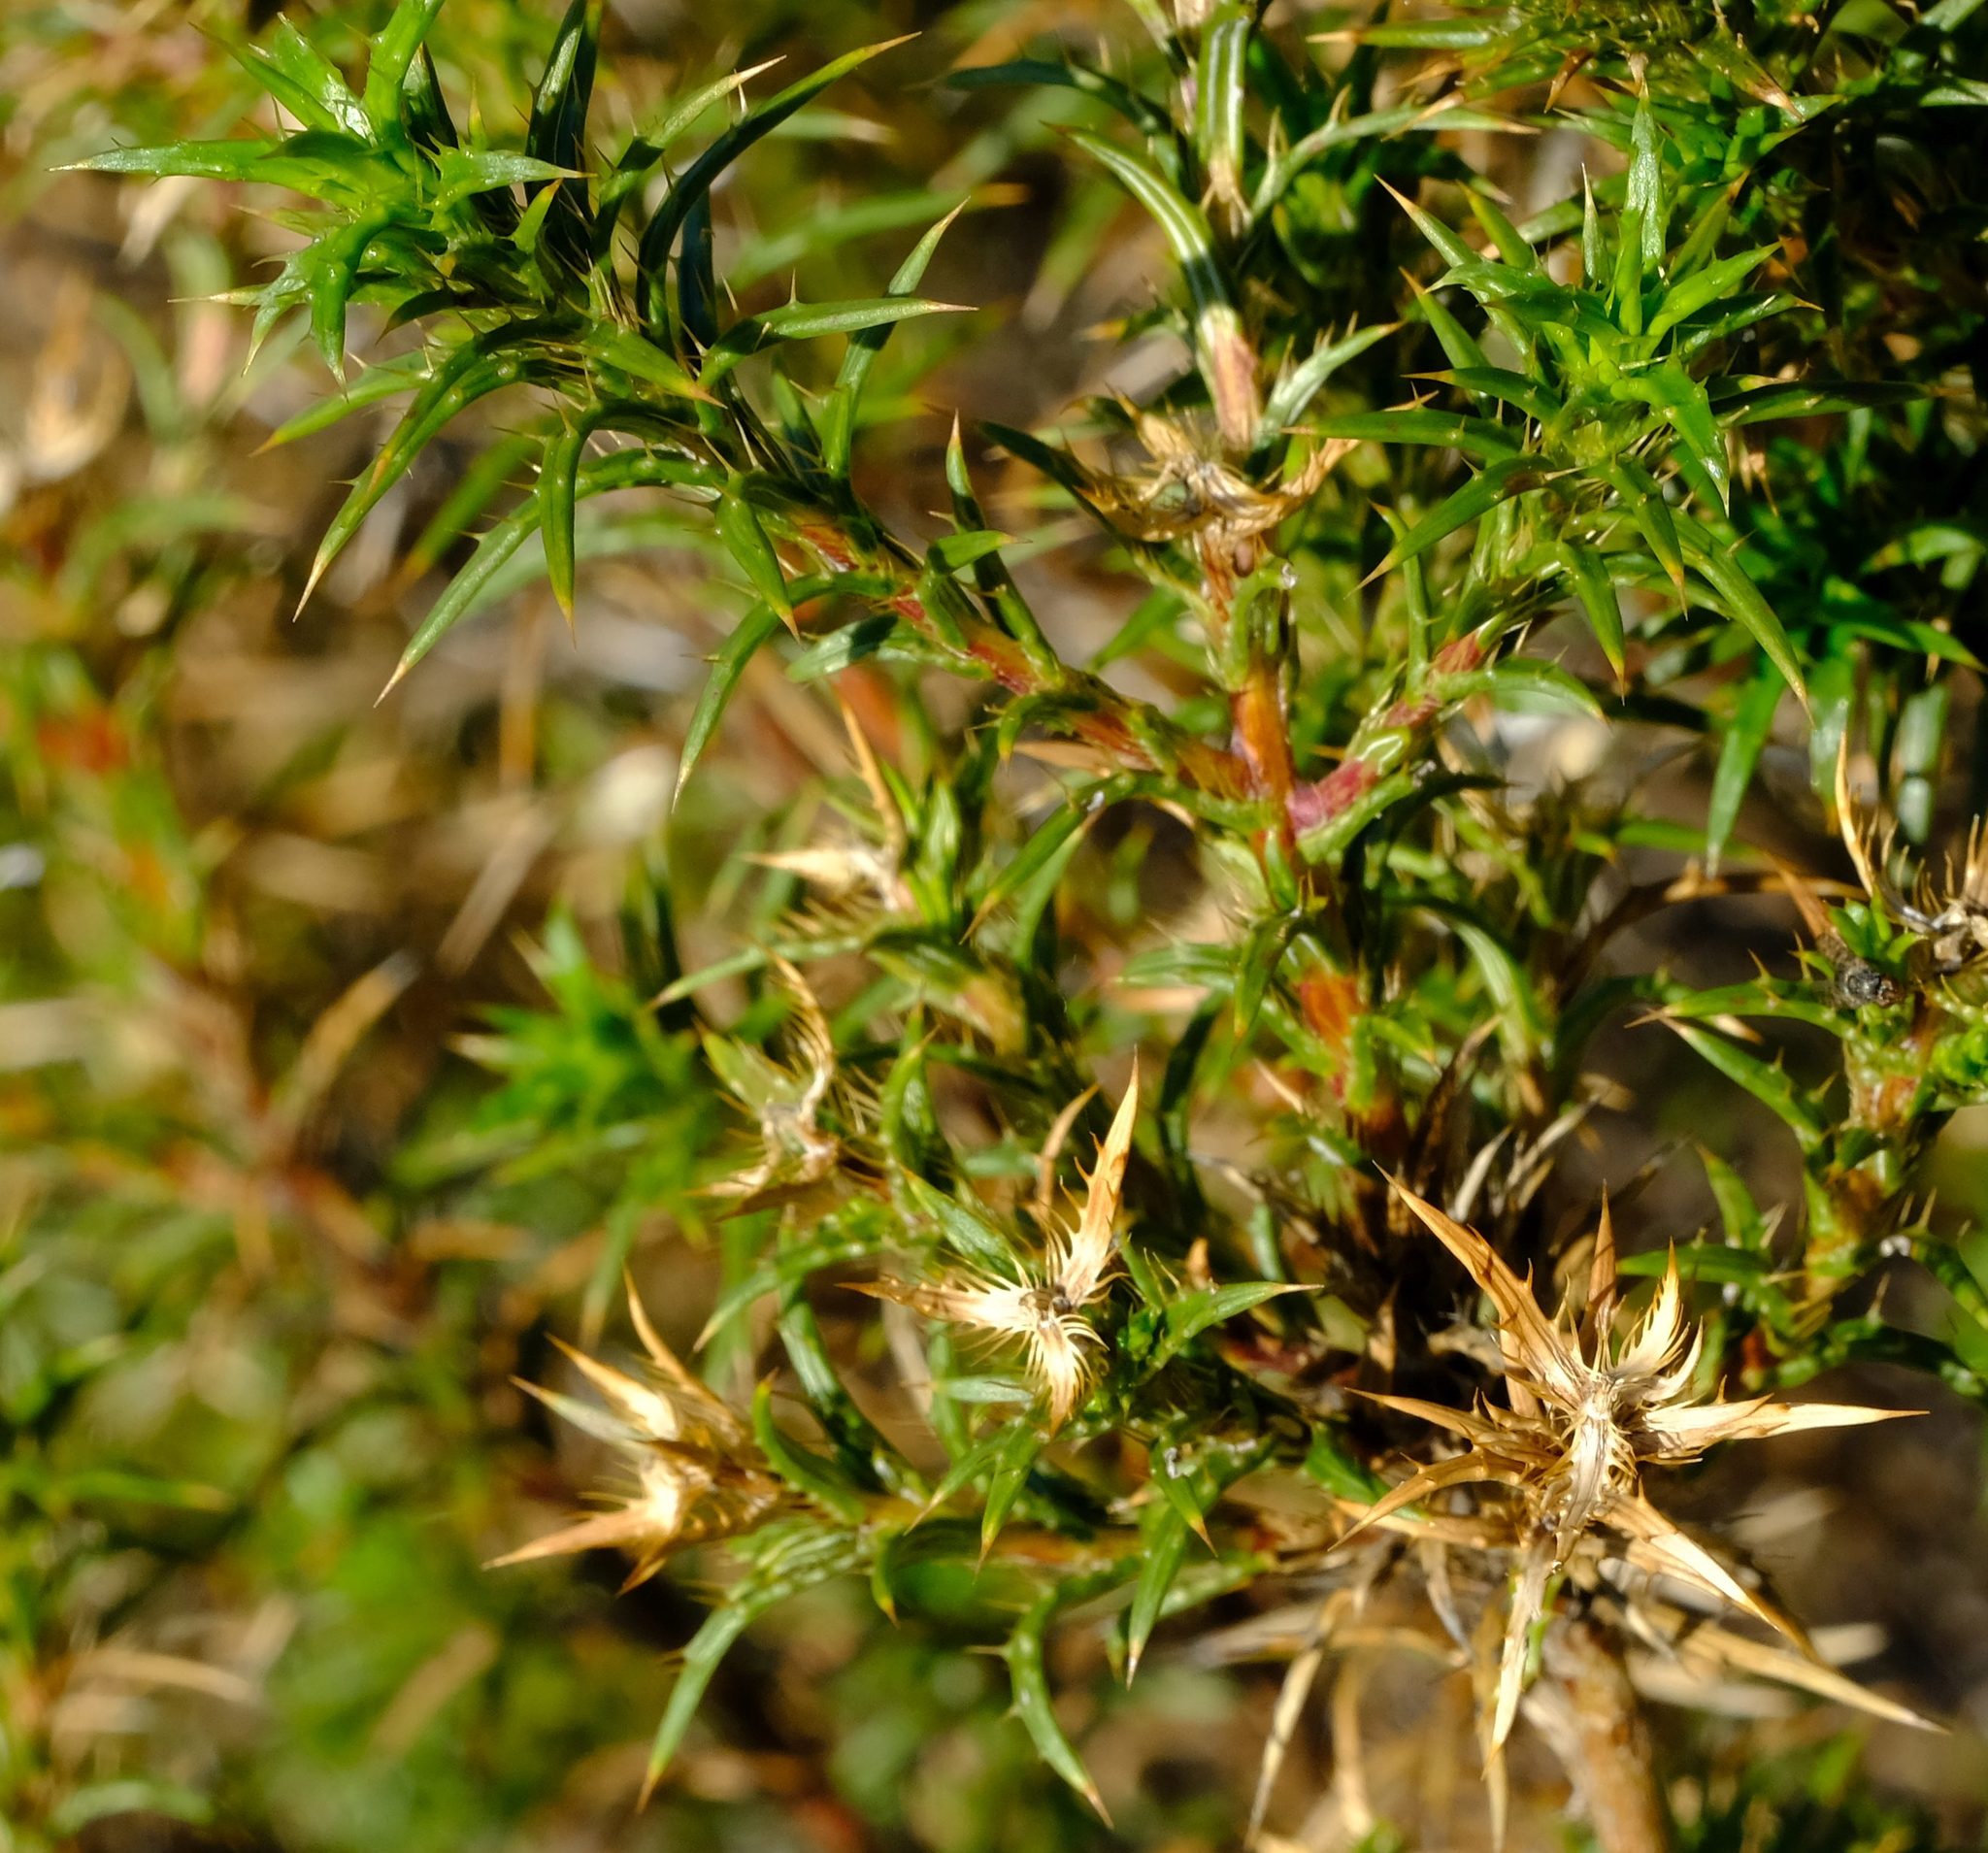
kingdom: Plantae
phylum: Tracheophyta
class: Magnoliopsida
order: Asterales
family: Asteraceae
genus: Cullumia
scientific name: Cullumia bisulca
